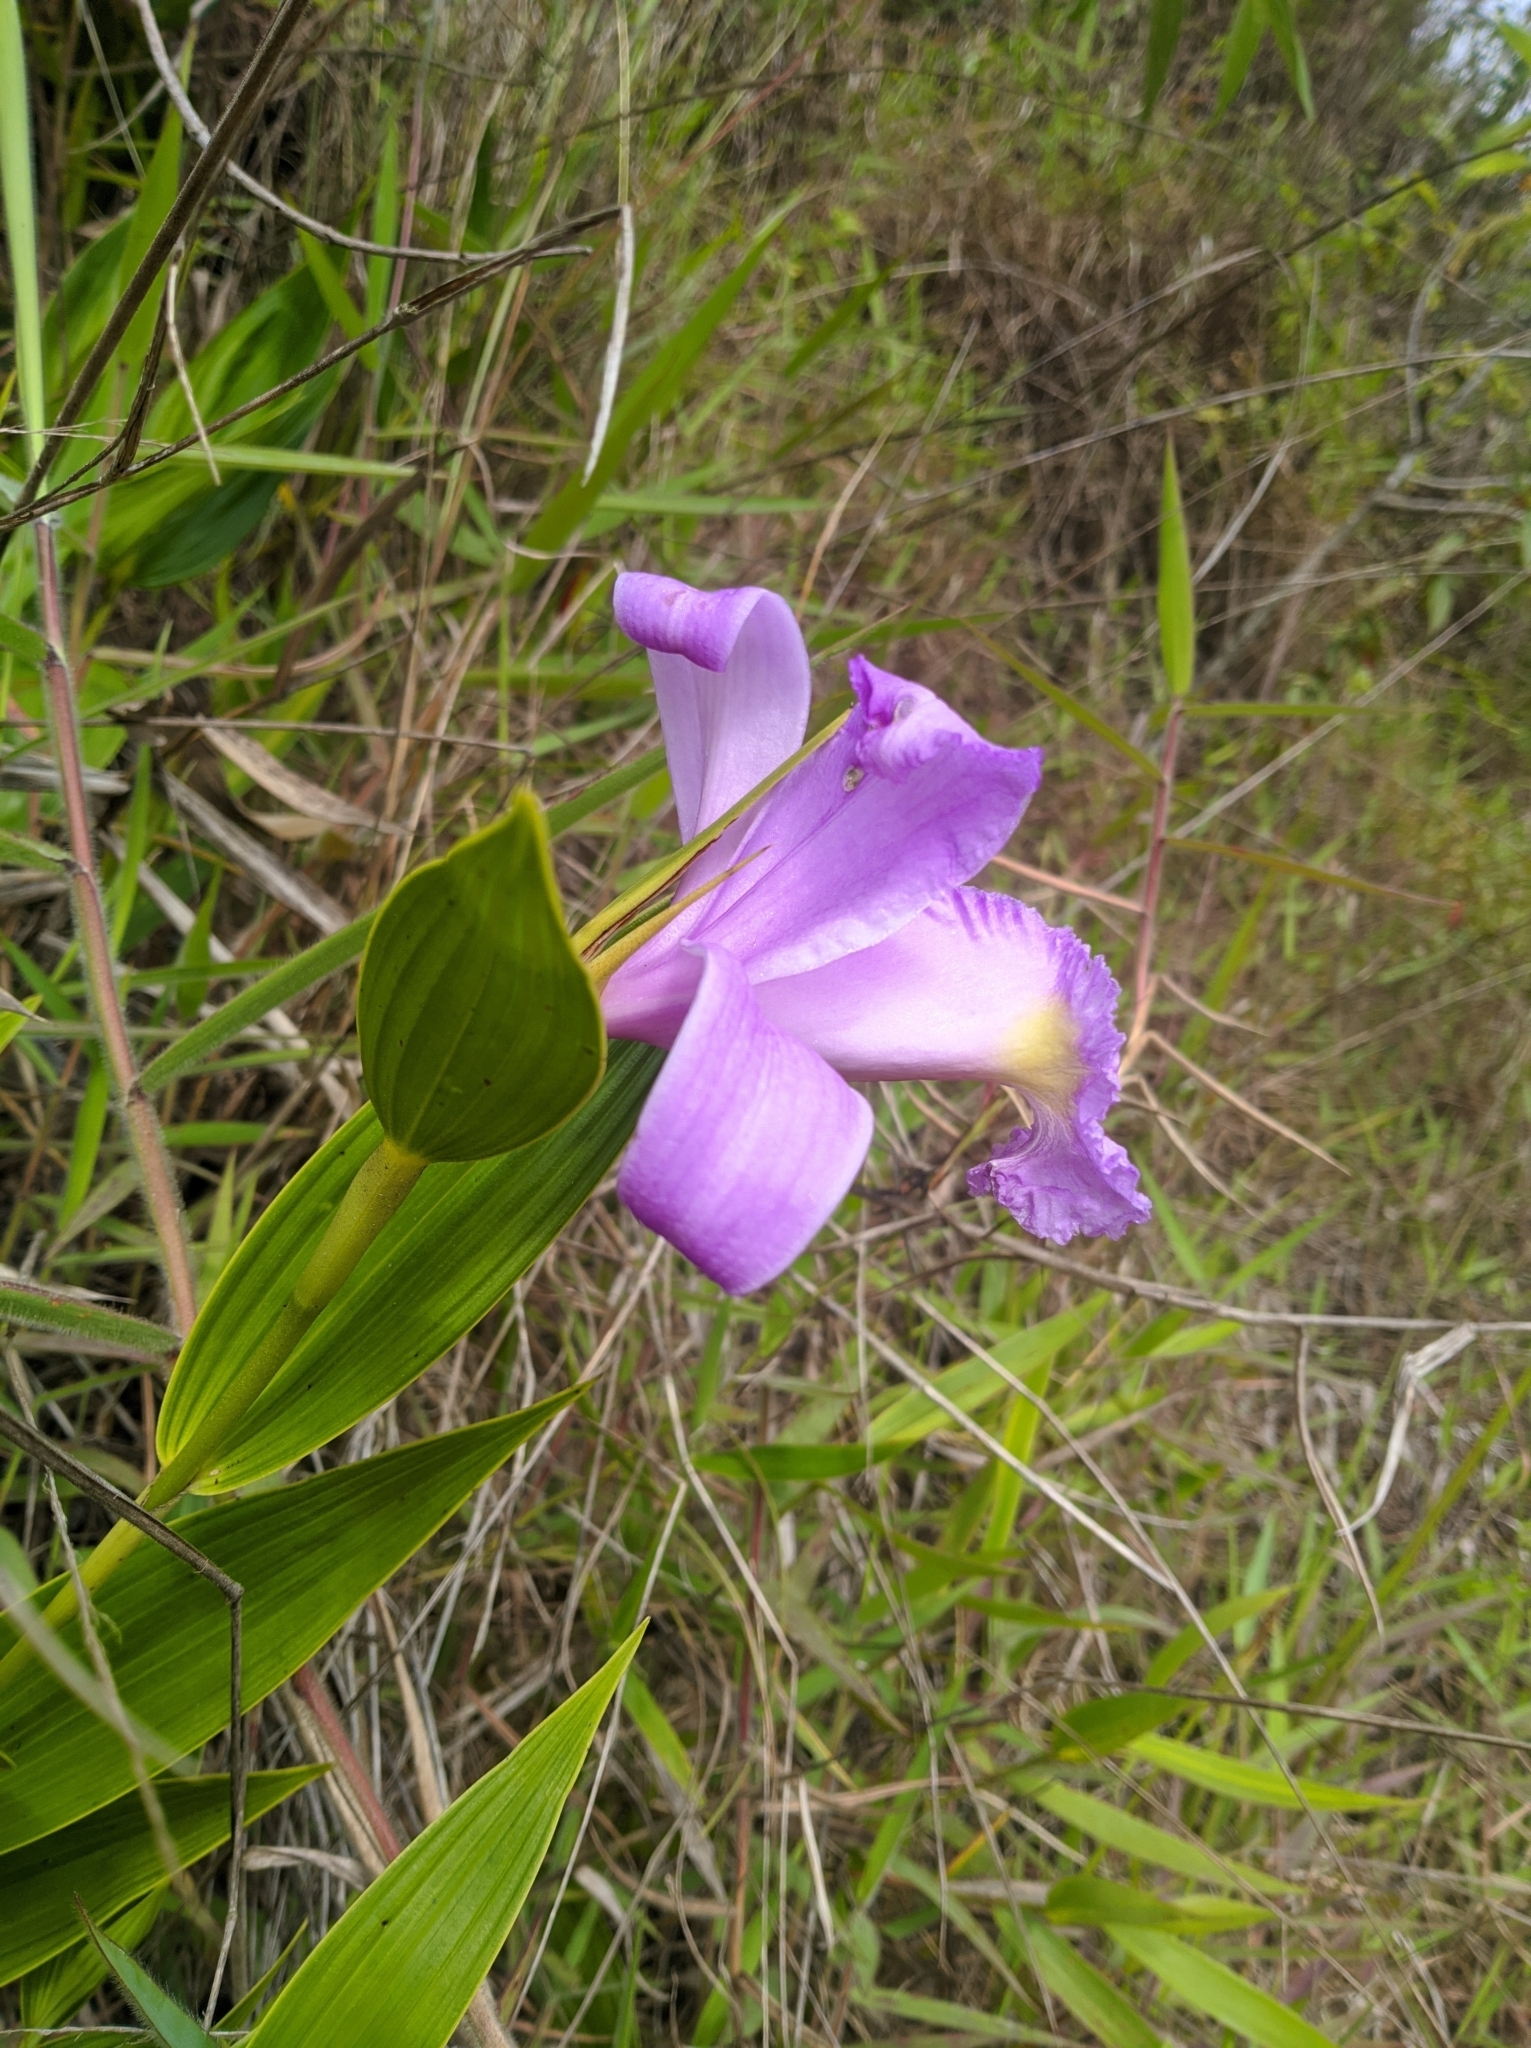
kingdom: Plantae
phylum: Tracheophyta
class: Liliopsida
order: Asparagales
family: Orchidaceae
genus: Sobralia
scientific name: Sobralia violacea
